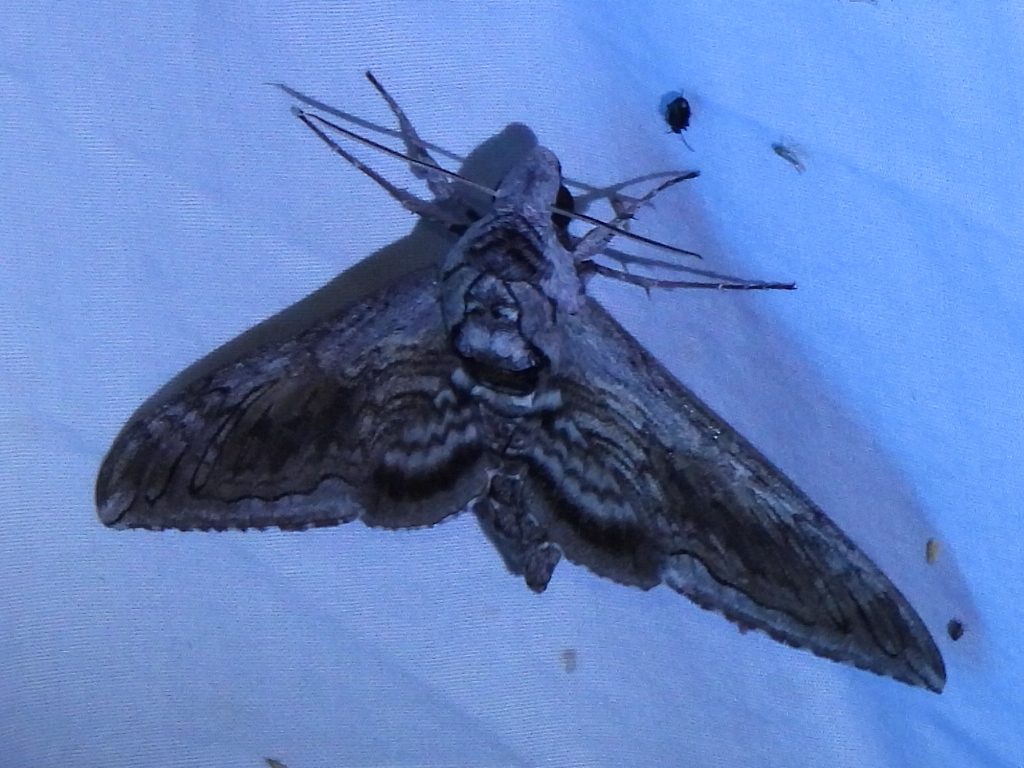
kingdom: Animalia
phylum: Arthropoda
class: Insecta
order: Lepidoptera
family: Sphingidae
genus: Manduca
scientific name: Manduca quinquemaculatus
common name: Five-spotted hawk-moth
